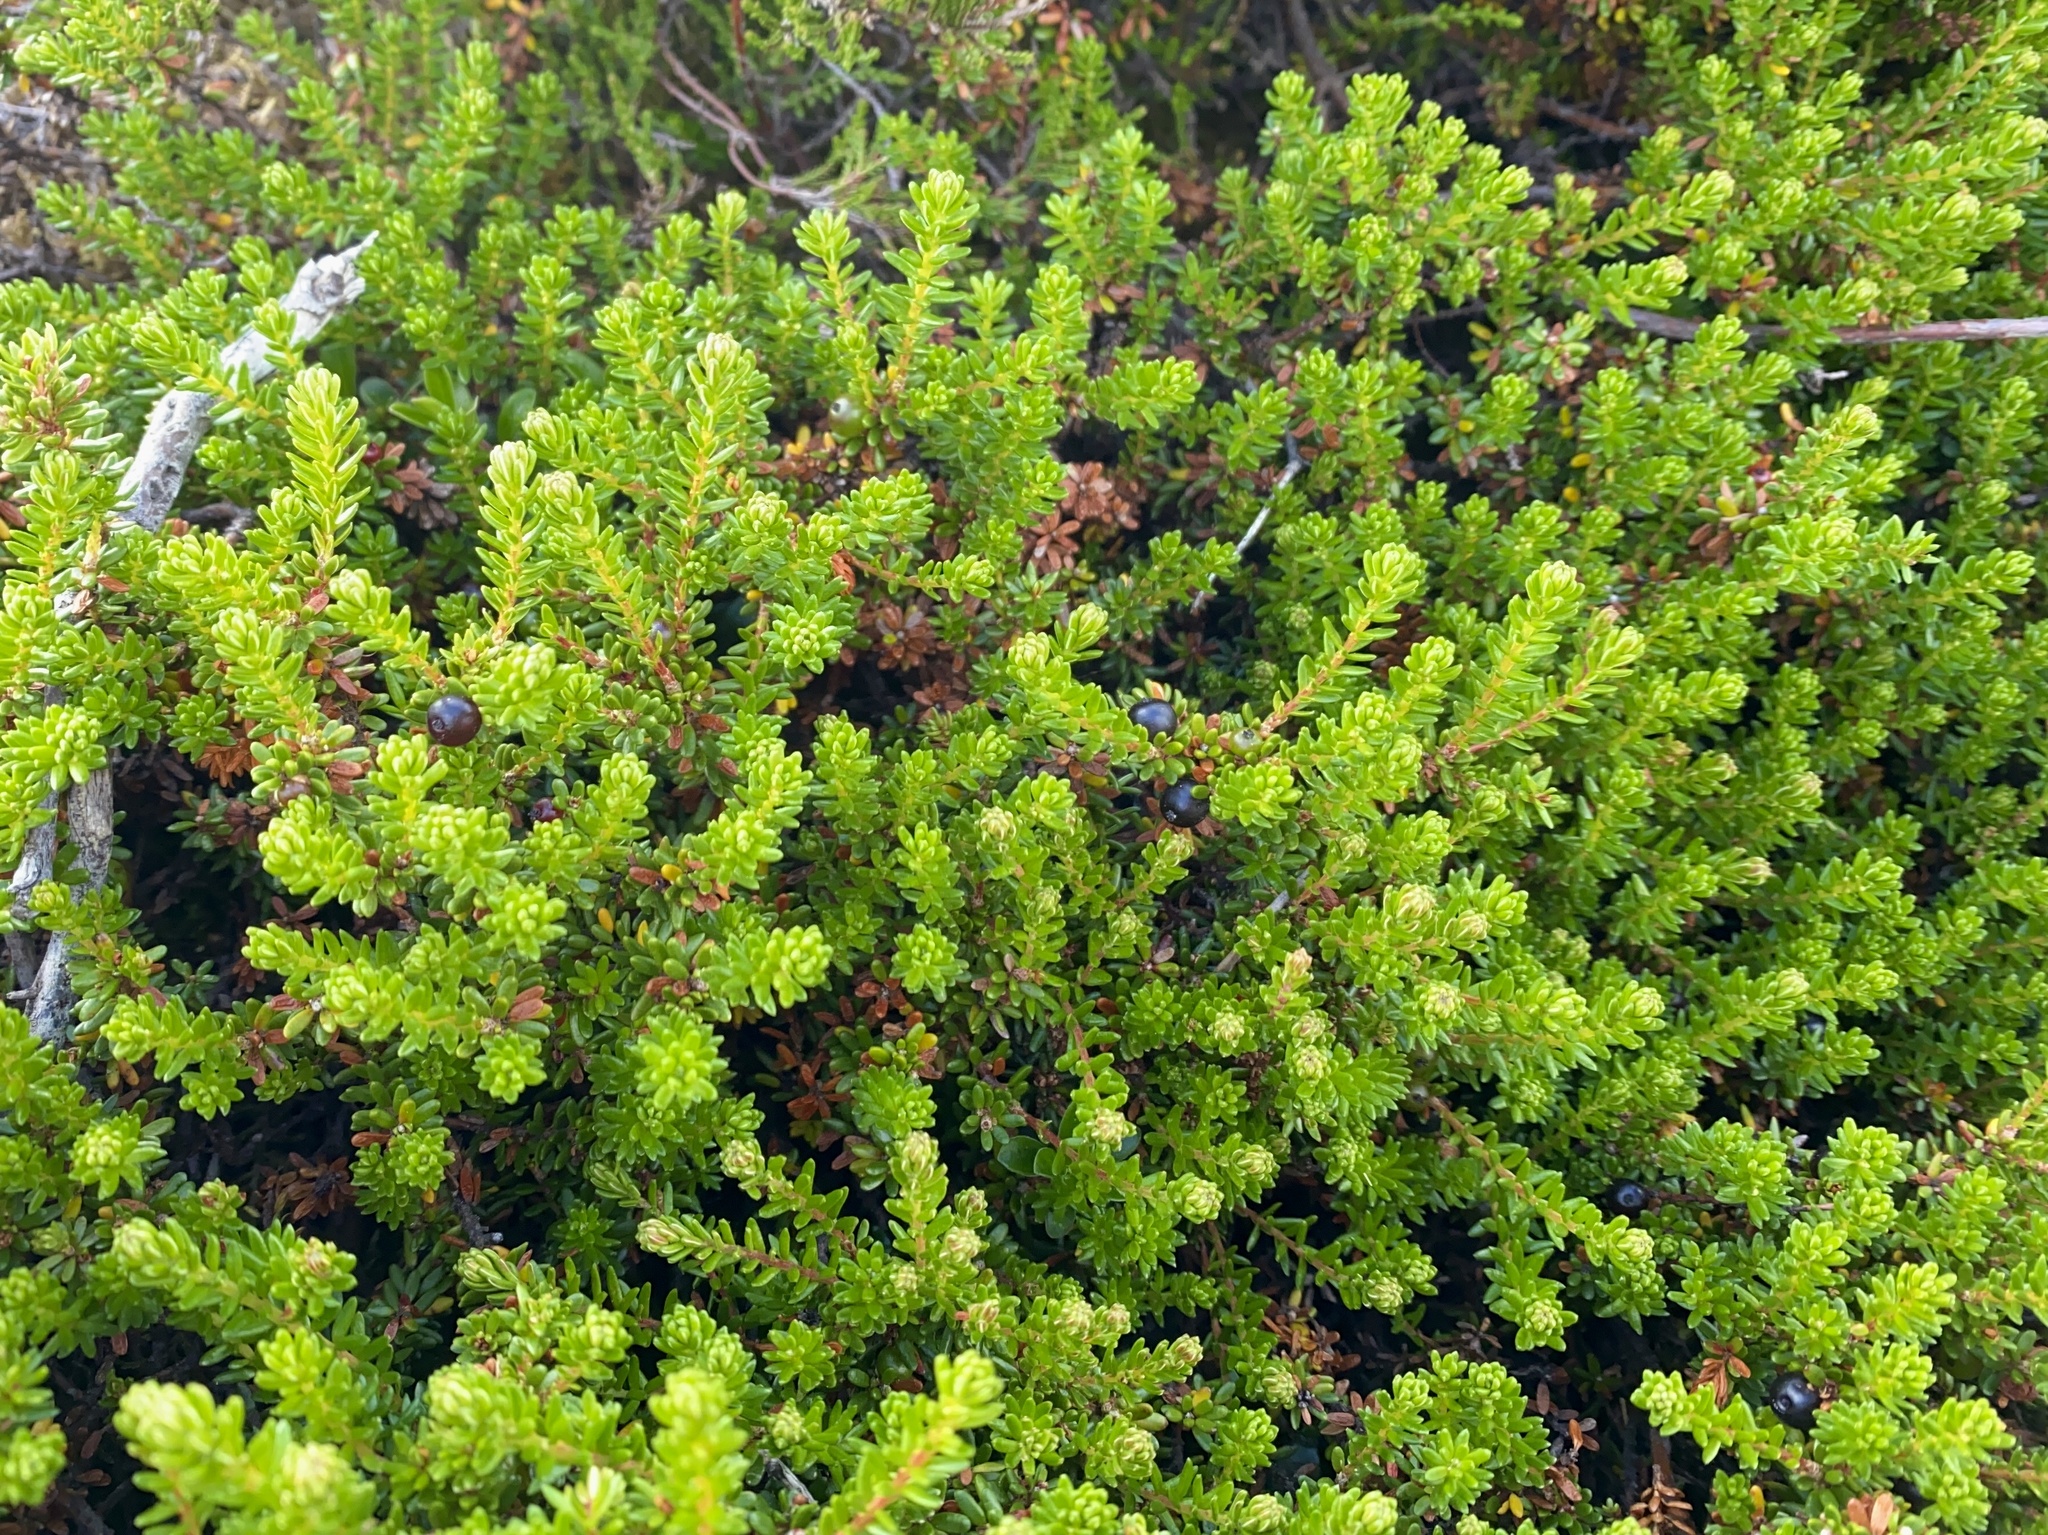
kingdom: Plantae
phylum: Tracheophyta
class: Magnoliopsida
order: Ericales
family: Ericaceae
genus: Empetrum
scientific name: Empetrum nigrum
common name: Black crowberry
